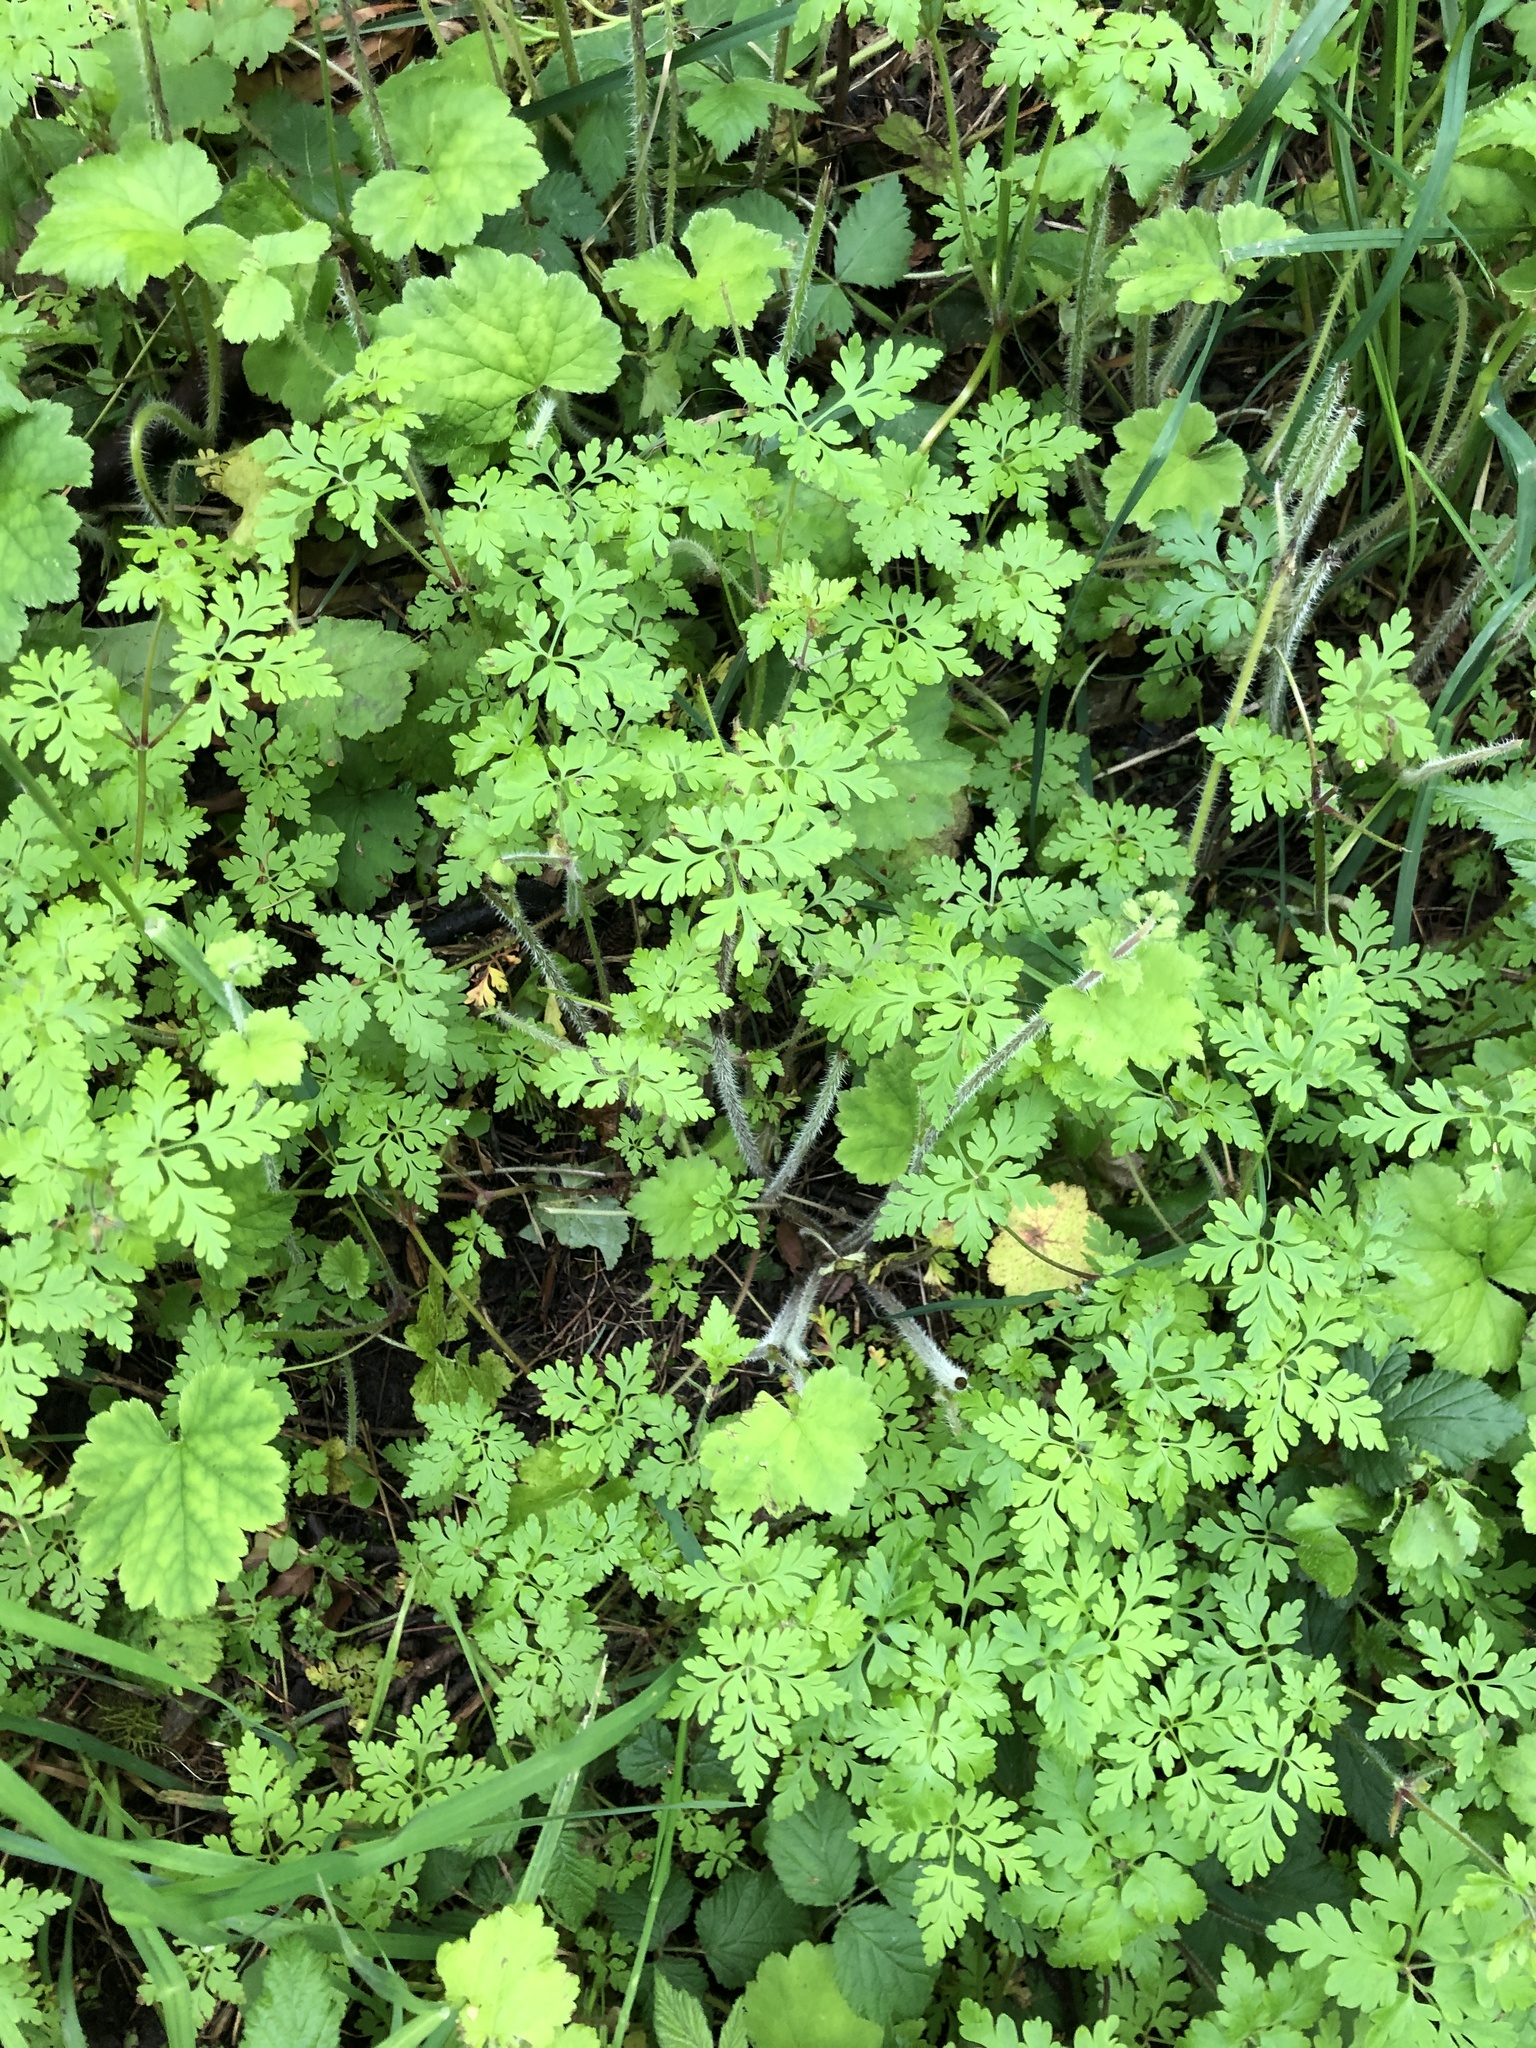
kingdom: Plantae
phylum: Tracheophyta
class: Magnoliopsida
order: Geraniales
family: Geraniaceae
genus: Geranium
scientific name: Geranium robertianum
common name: Herb-robert
